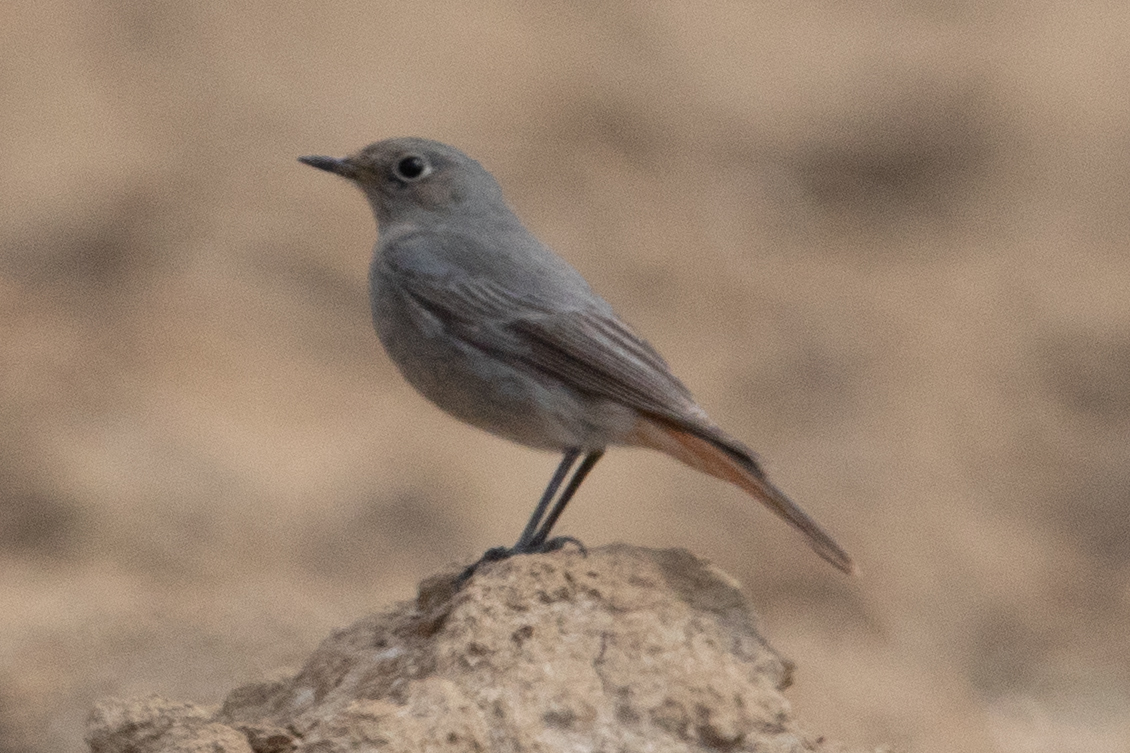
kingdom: Animalia
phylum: Chordata
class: Aves
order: Passeriformes
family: Muscicapidae
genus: Phoenicurus
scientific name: Phoenicurus ochruros
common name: Black redstart
